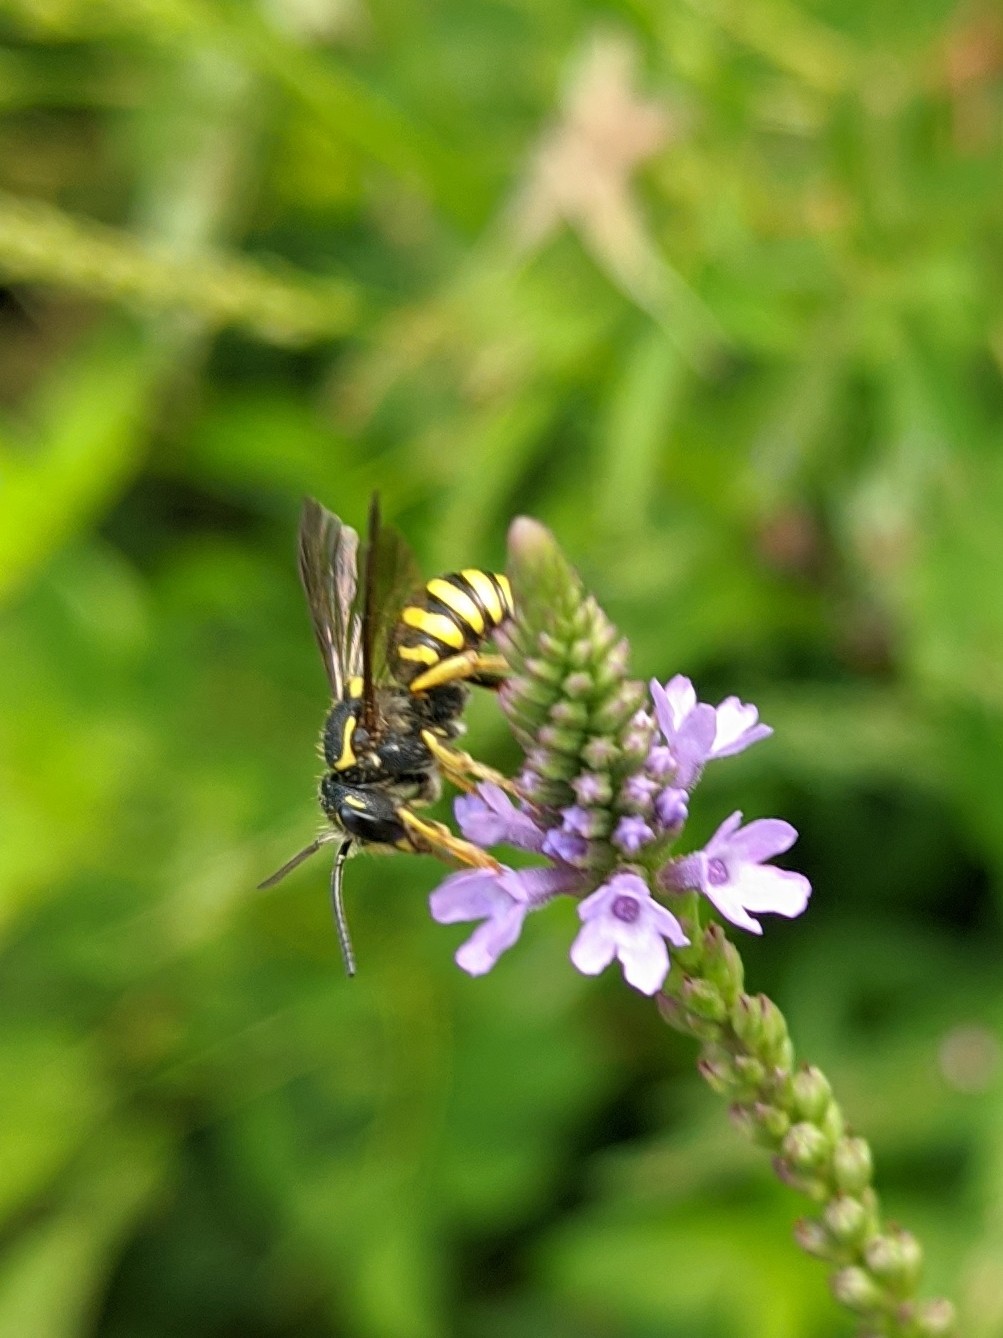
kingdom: Animalia
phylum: Arthropoda
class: Insecta
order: Hymenoptera
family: Megachilidae
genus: Paranthidium
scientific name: Paranthidium jugatorium
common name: Sunflower burrowing-resin bee
